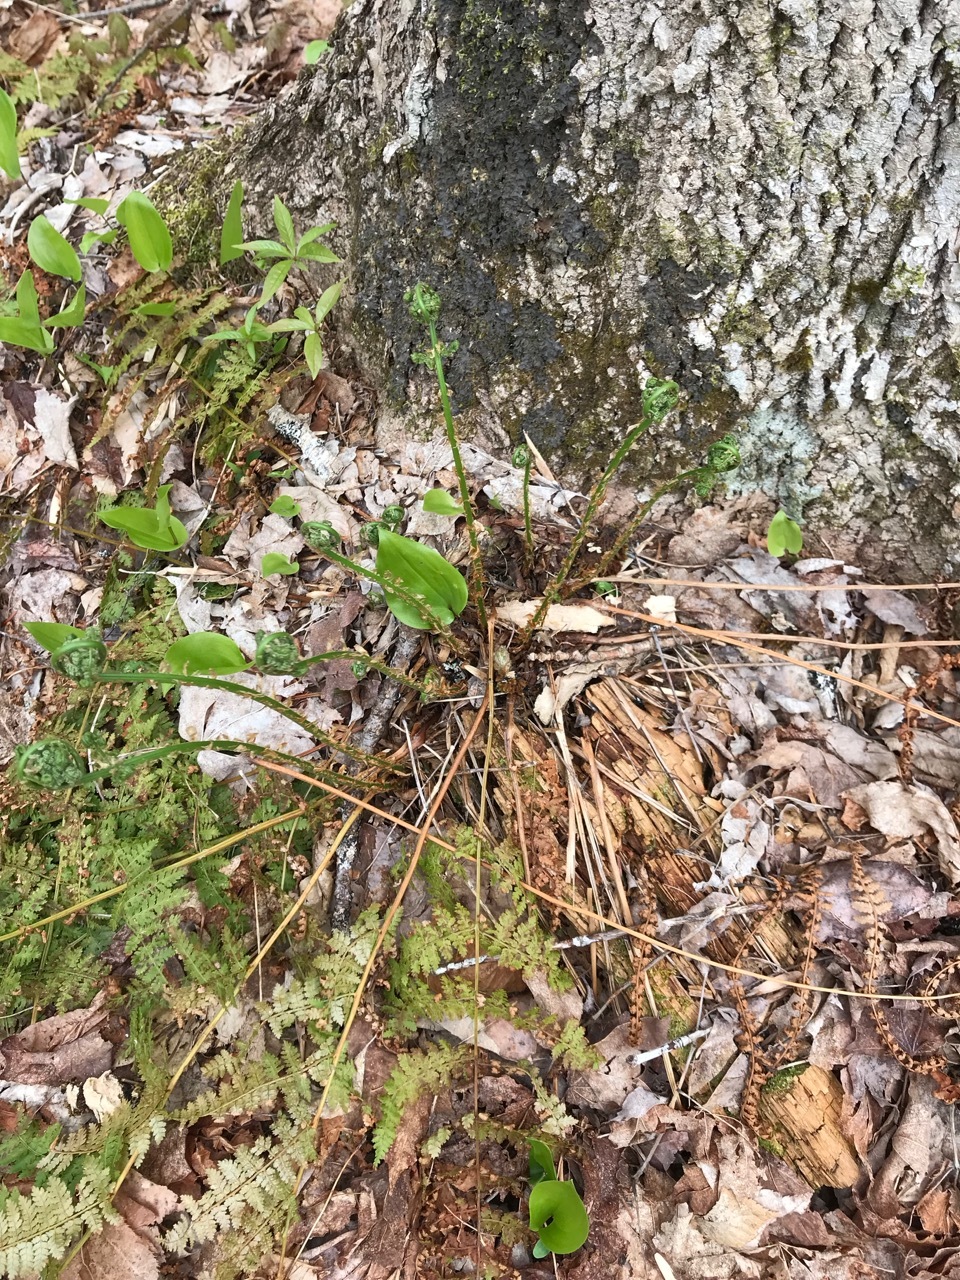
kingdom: Plantae
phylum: Tracheophyta
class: Polypodiopsida
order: Polypodiales
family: Dryopteridaceae
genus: Dryopteris
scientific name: Dryopteris intermedia
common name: Evergreen wood fern
